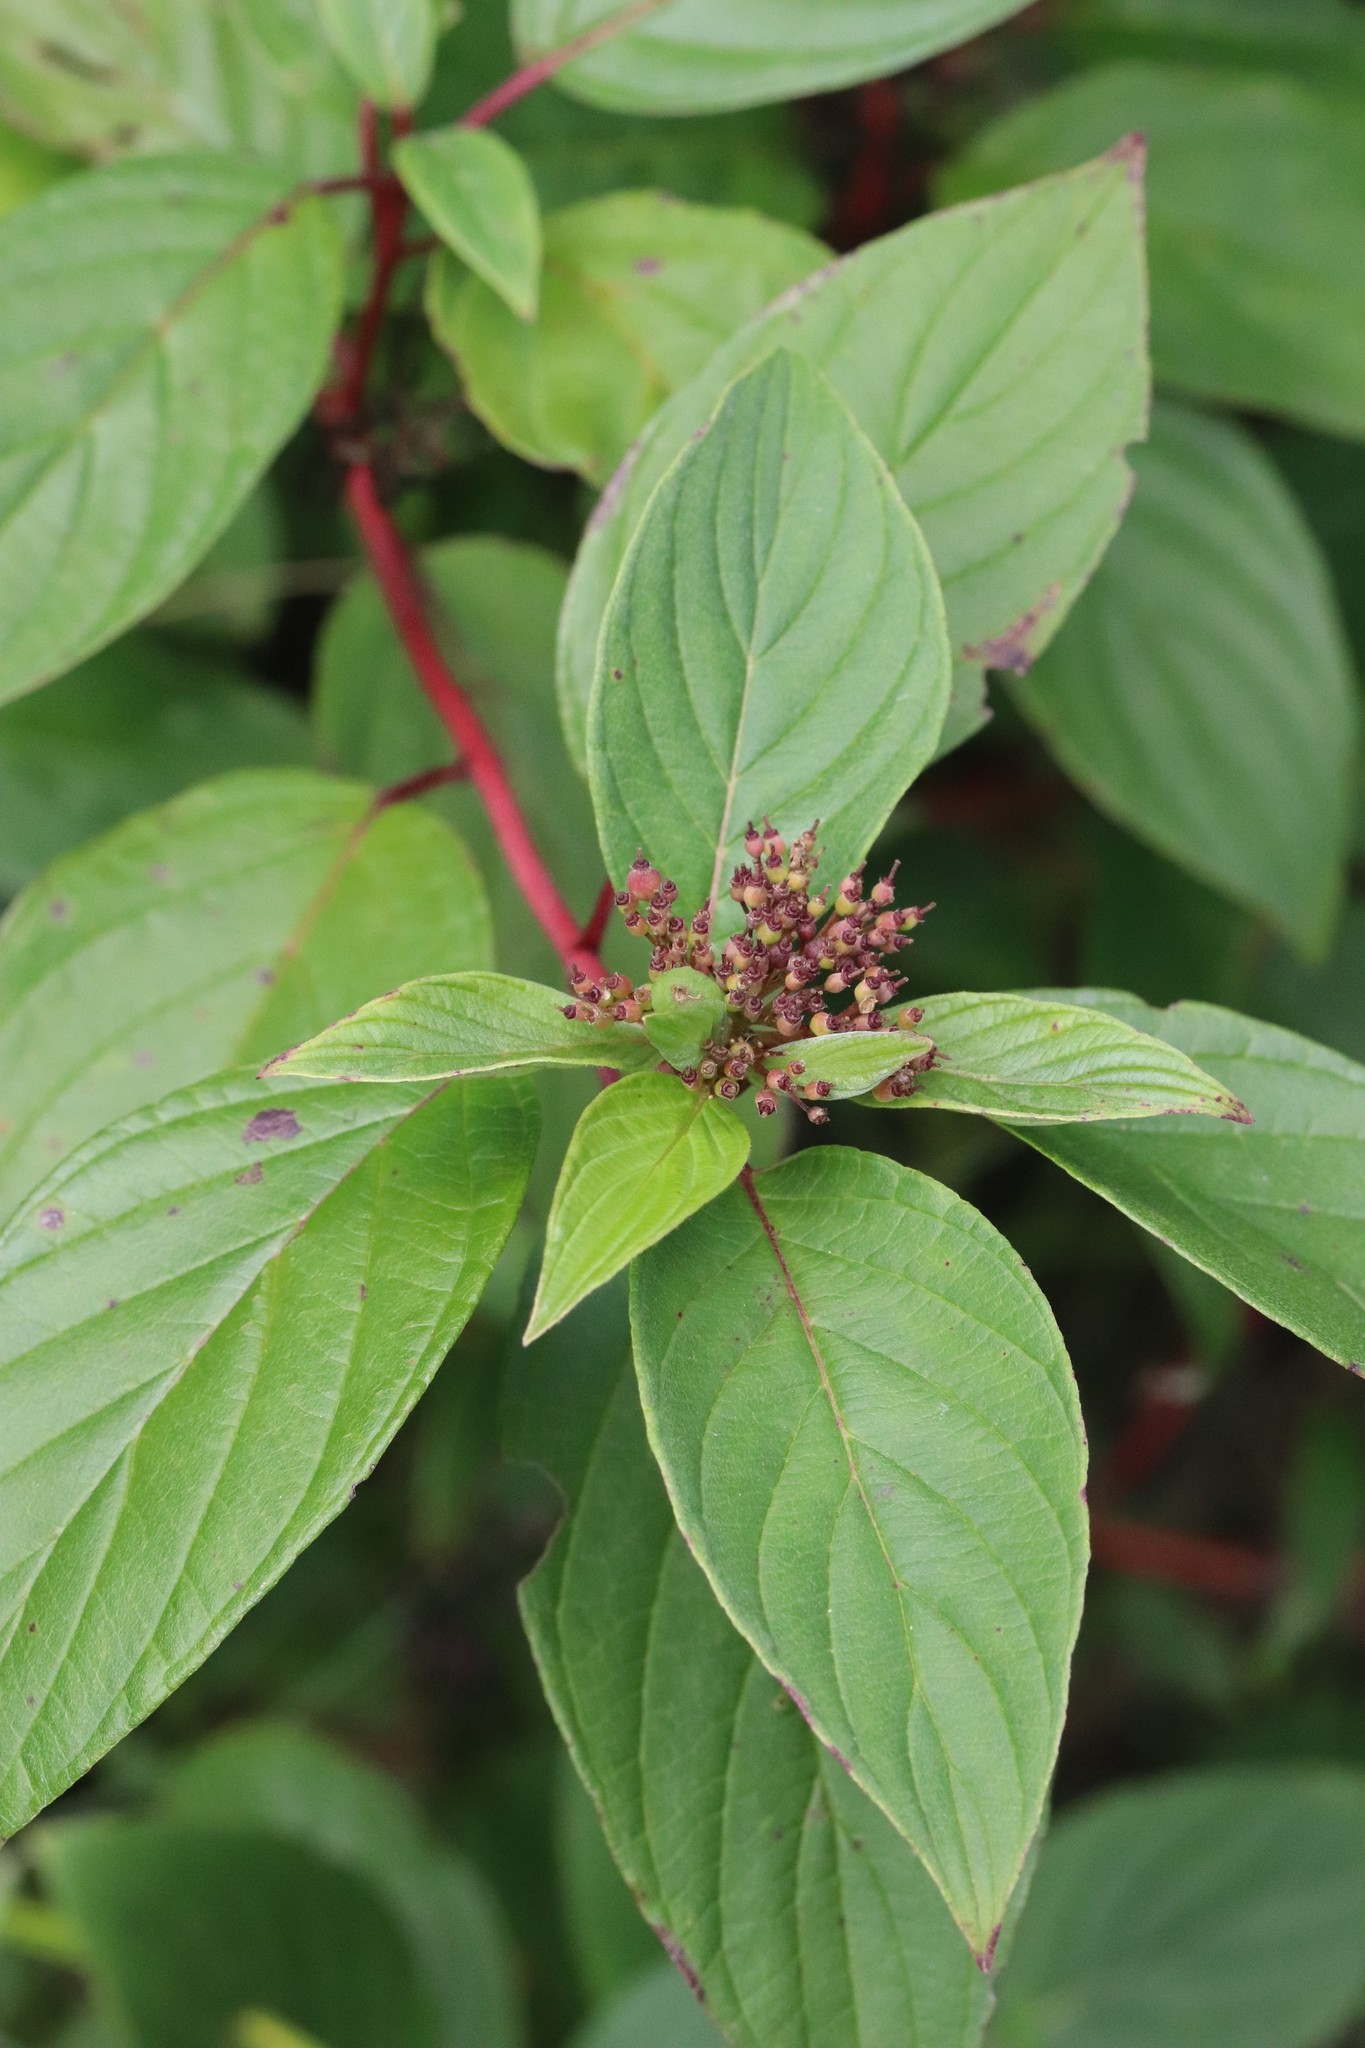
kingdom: Plantae
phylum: Tracheophyta
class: Magnoliopsida
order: Cornales
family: Cornaceae
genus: Cornus
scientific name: Cornus alba
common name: White dogwood
